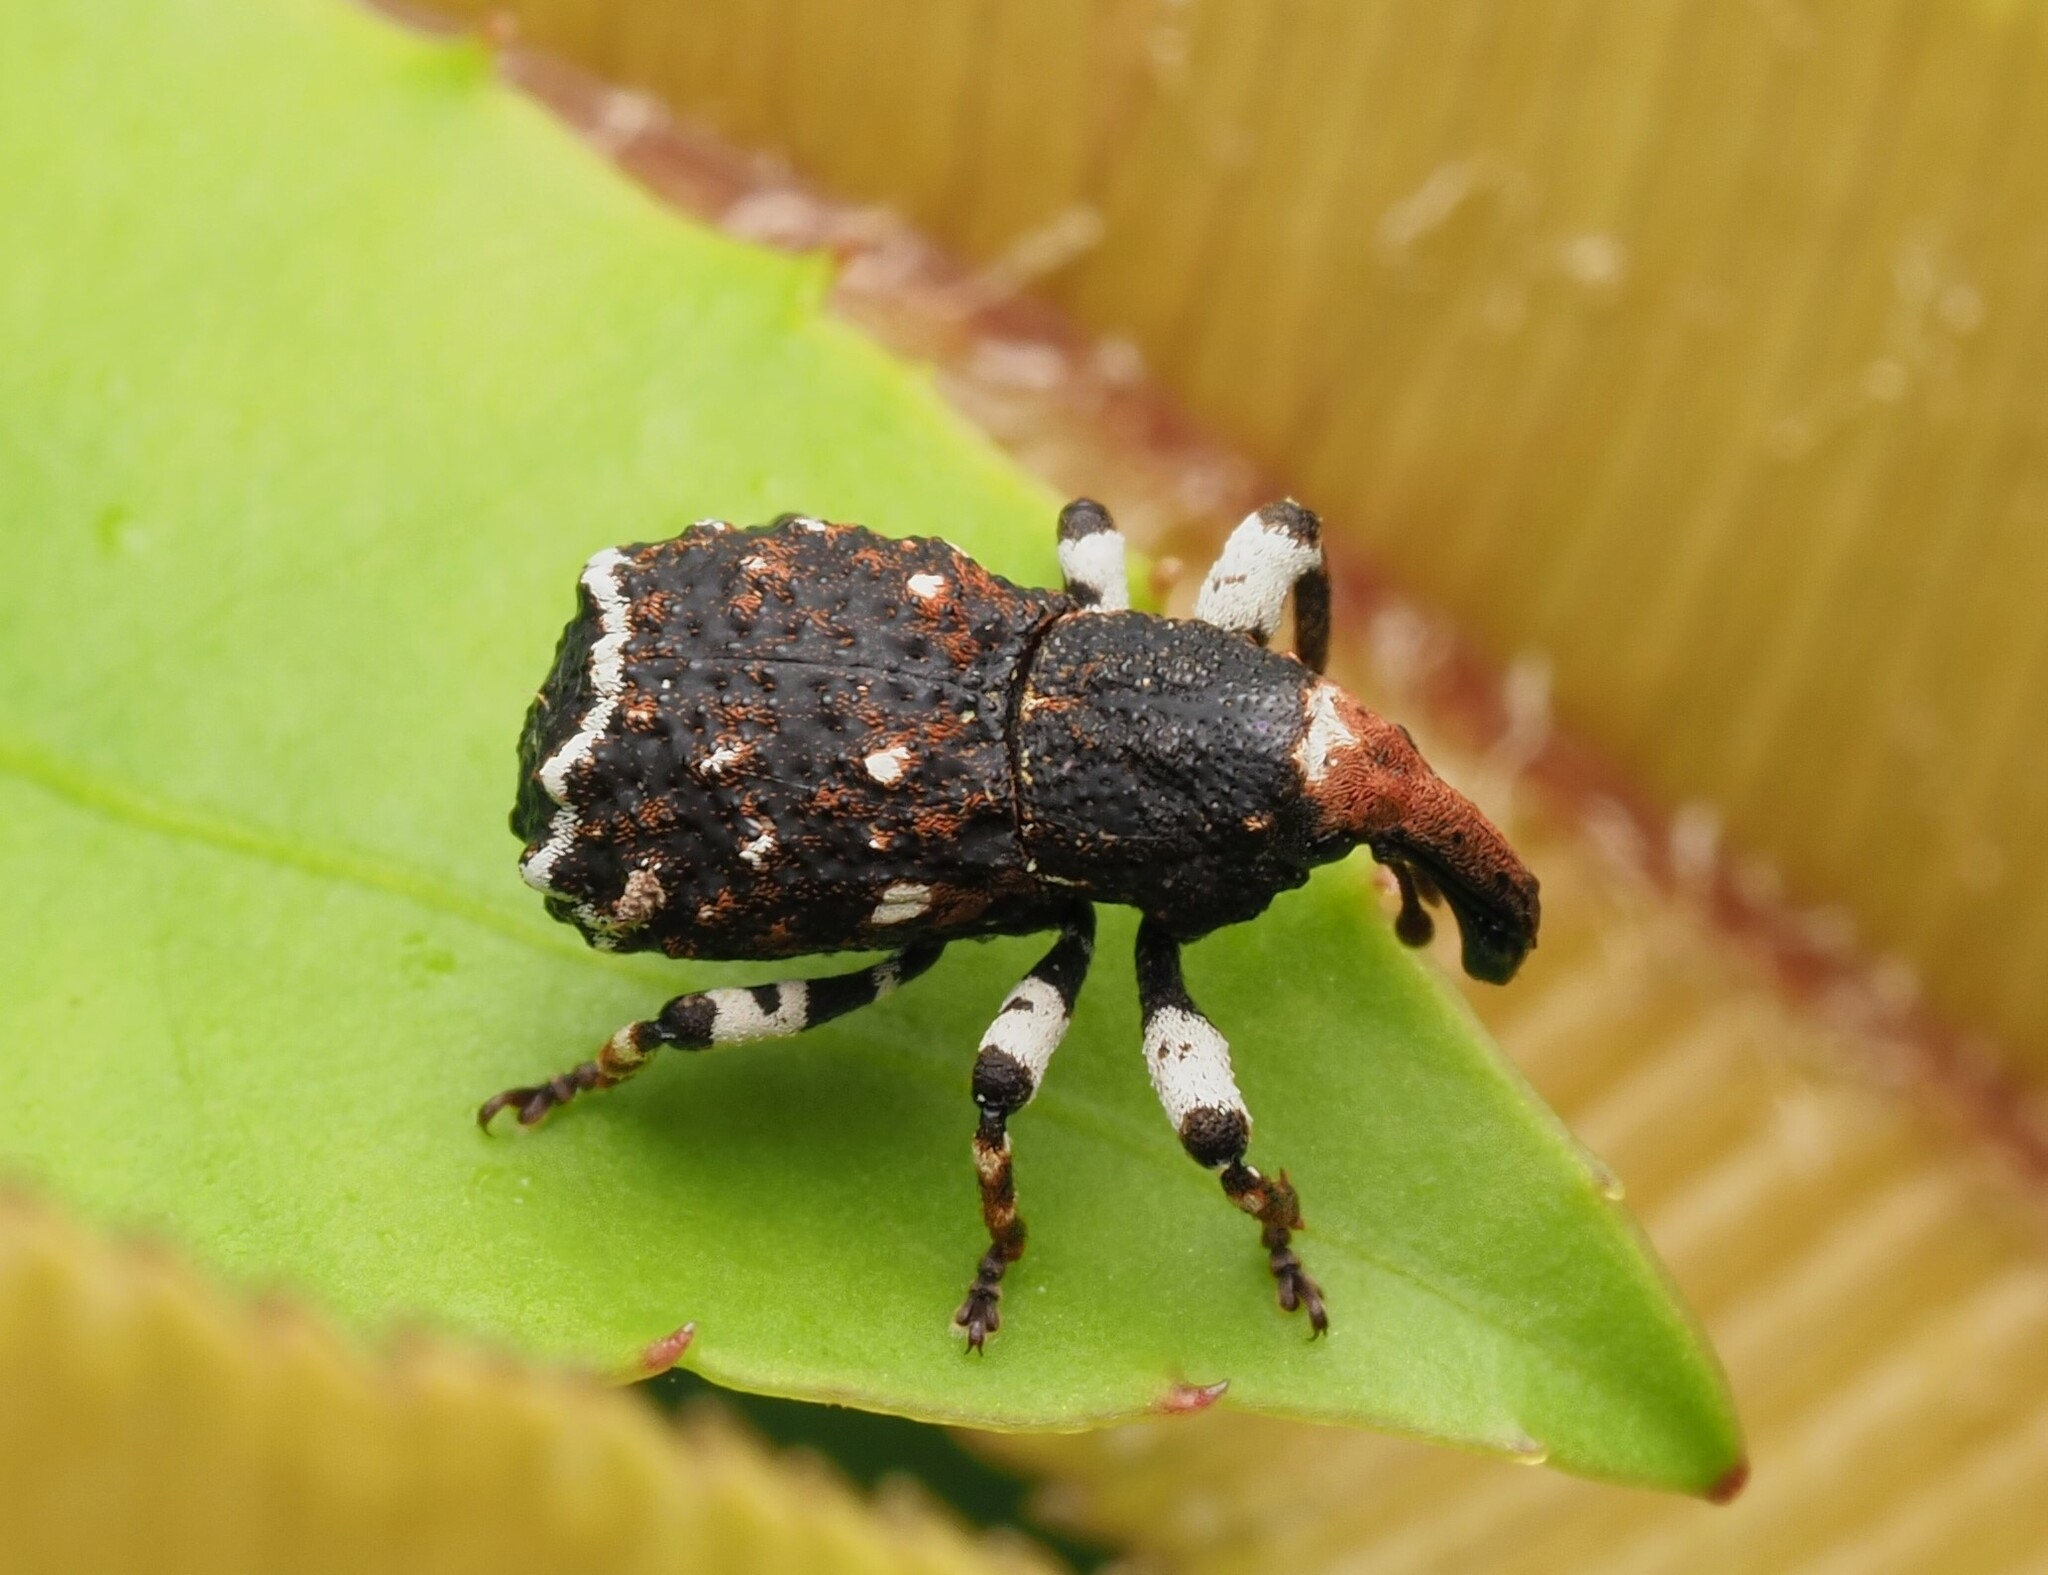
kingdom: Animalia
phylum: Arthropoda
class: Insecta
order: Coleoptera
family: Curculionidae
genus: Megacolabus
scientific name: Megacolabus harrisi
